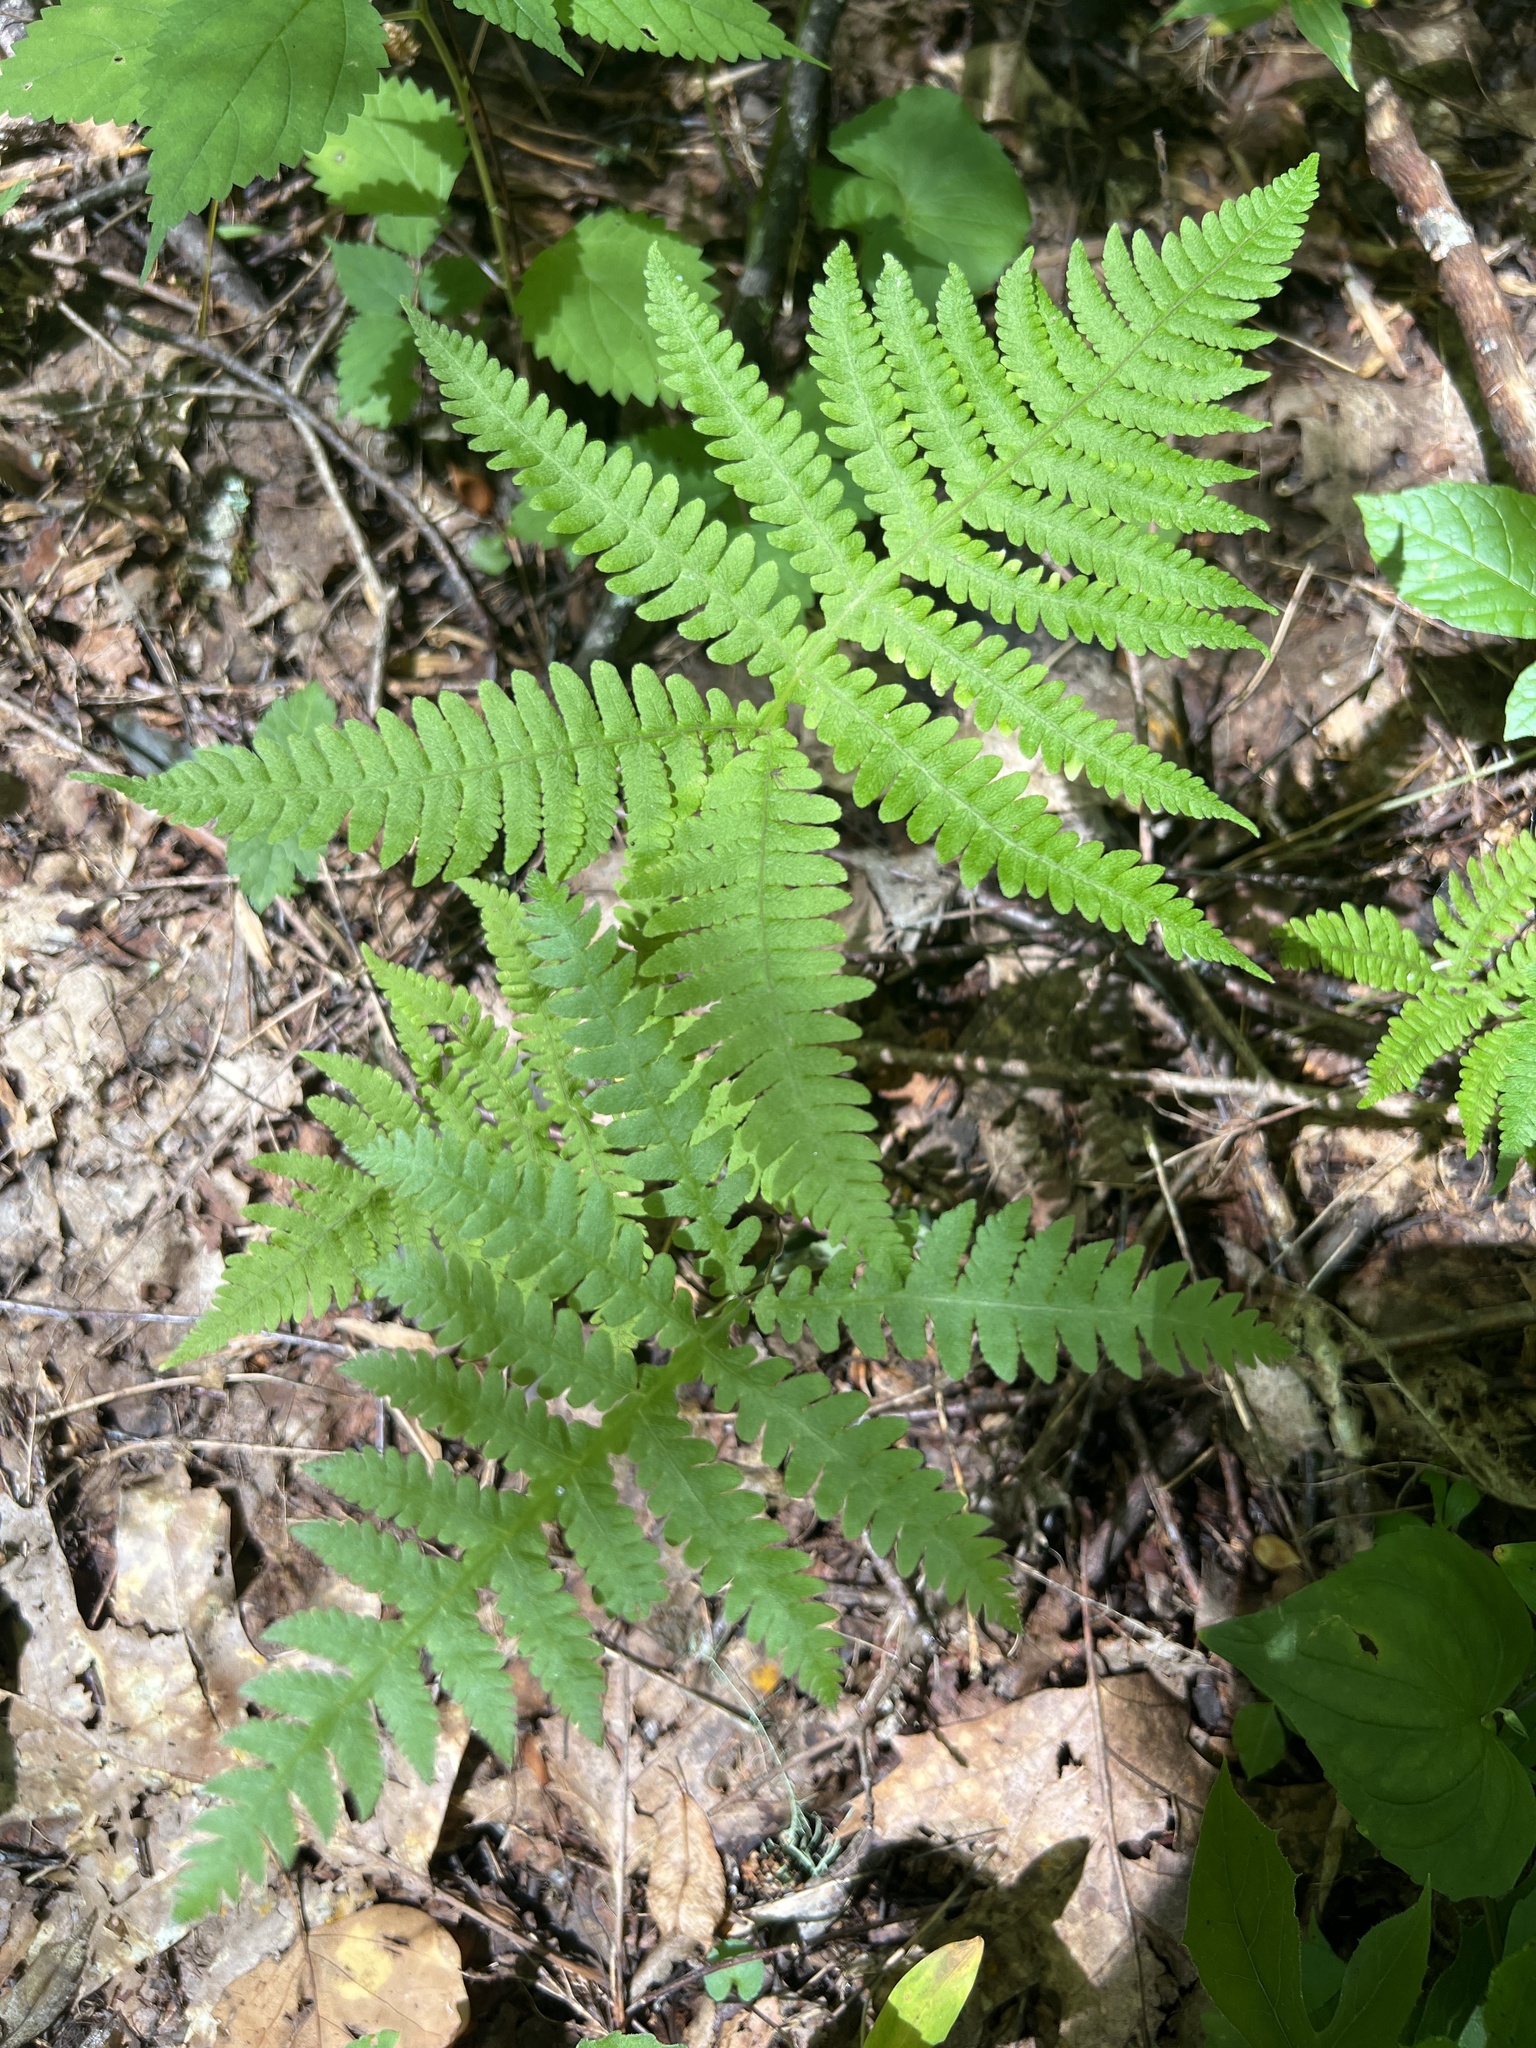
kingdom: Plantae
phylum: Tracheophyta
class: Polypodiopsida
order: Polypodiales
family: Thelypteridaceae
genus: Phegopteris
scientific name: Phegopteris hexagonoptera
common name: Broad beech fern
